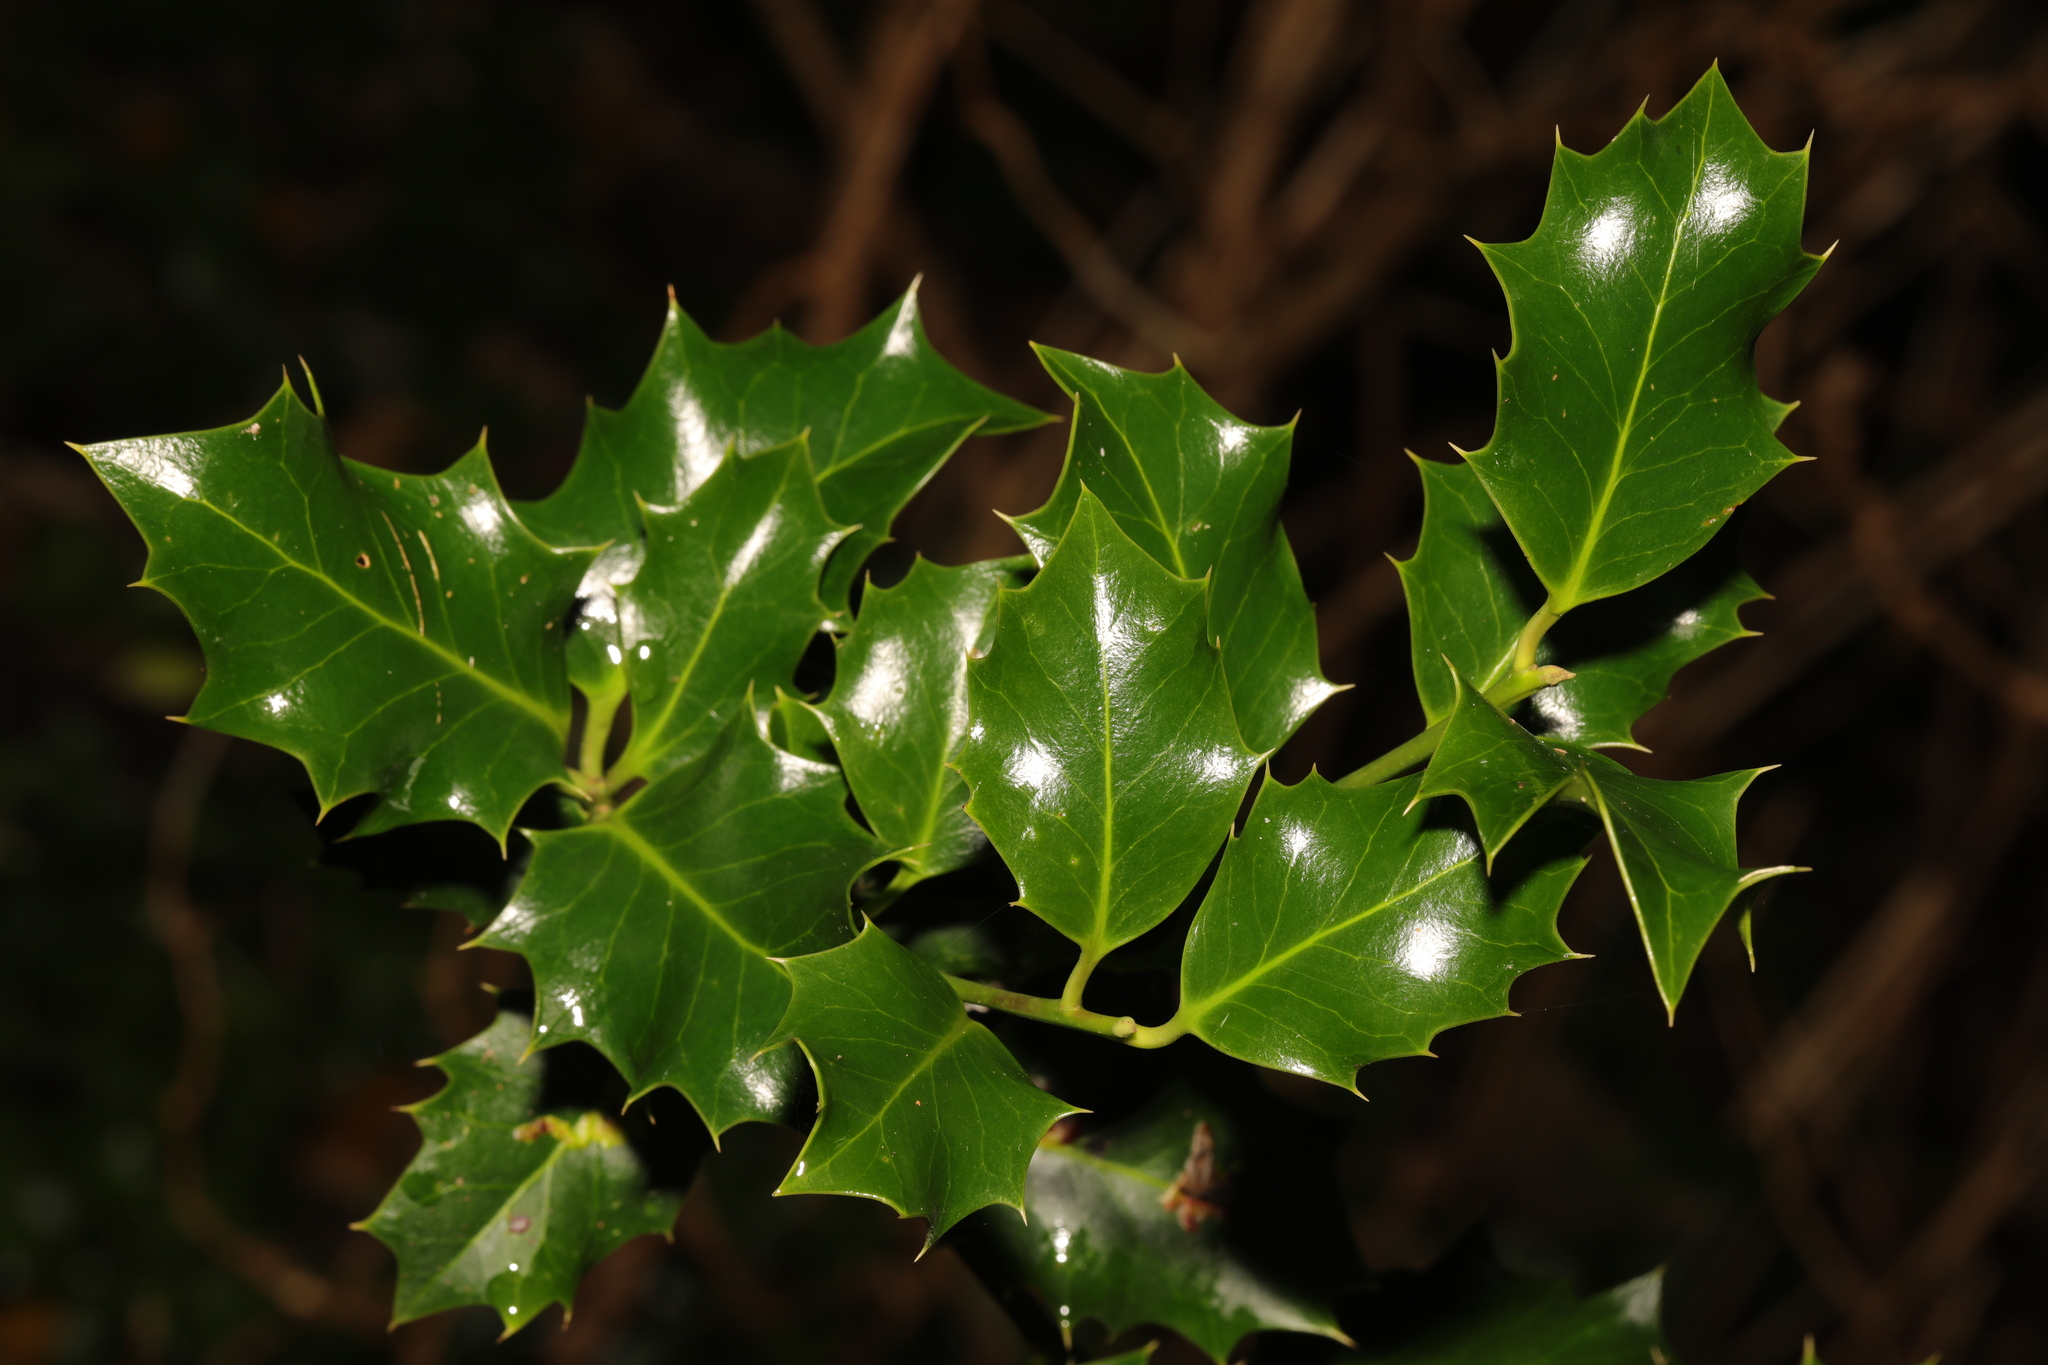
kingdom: Plantae
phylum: Tracheophyta
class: Magnoliopsida
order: Aquifoliales
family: Aquifoliaceae
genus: Ilex
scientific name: Ilex aquifolium
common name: English holly
